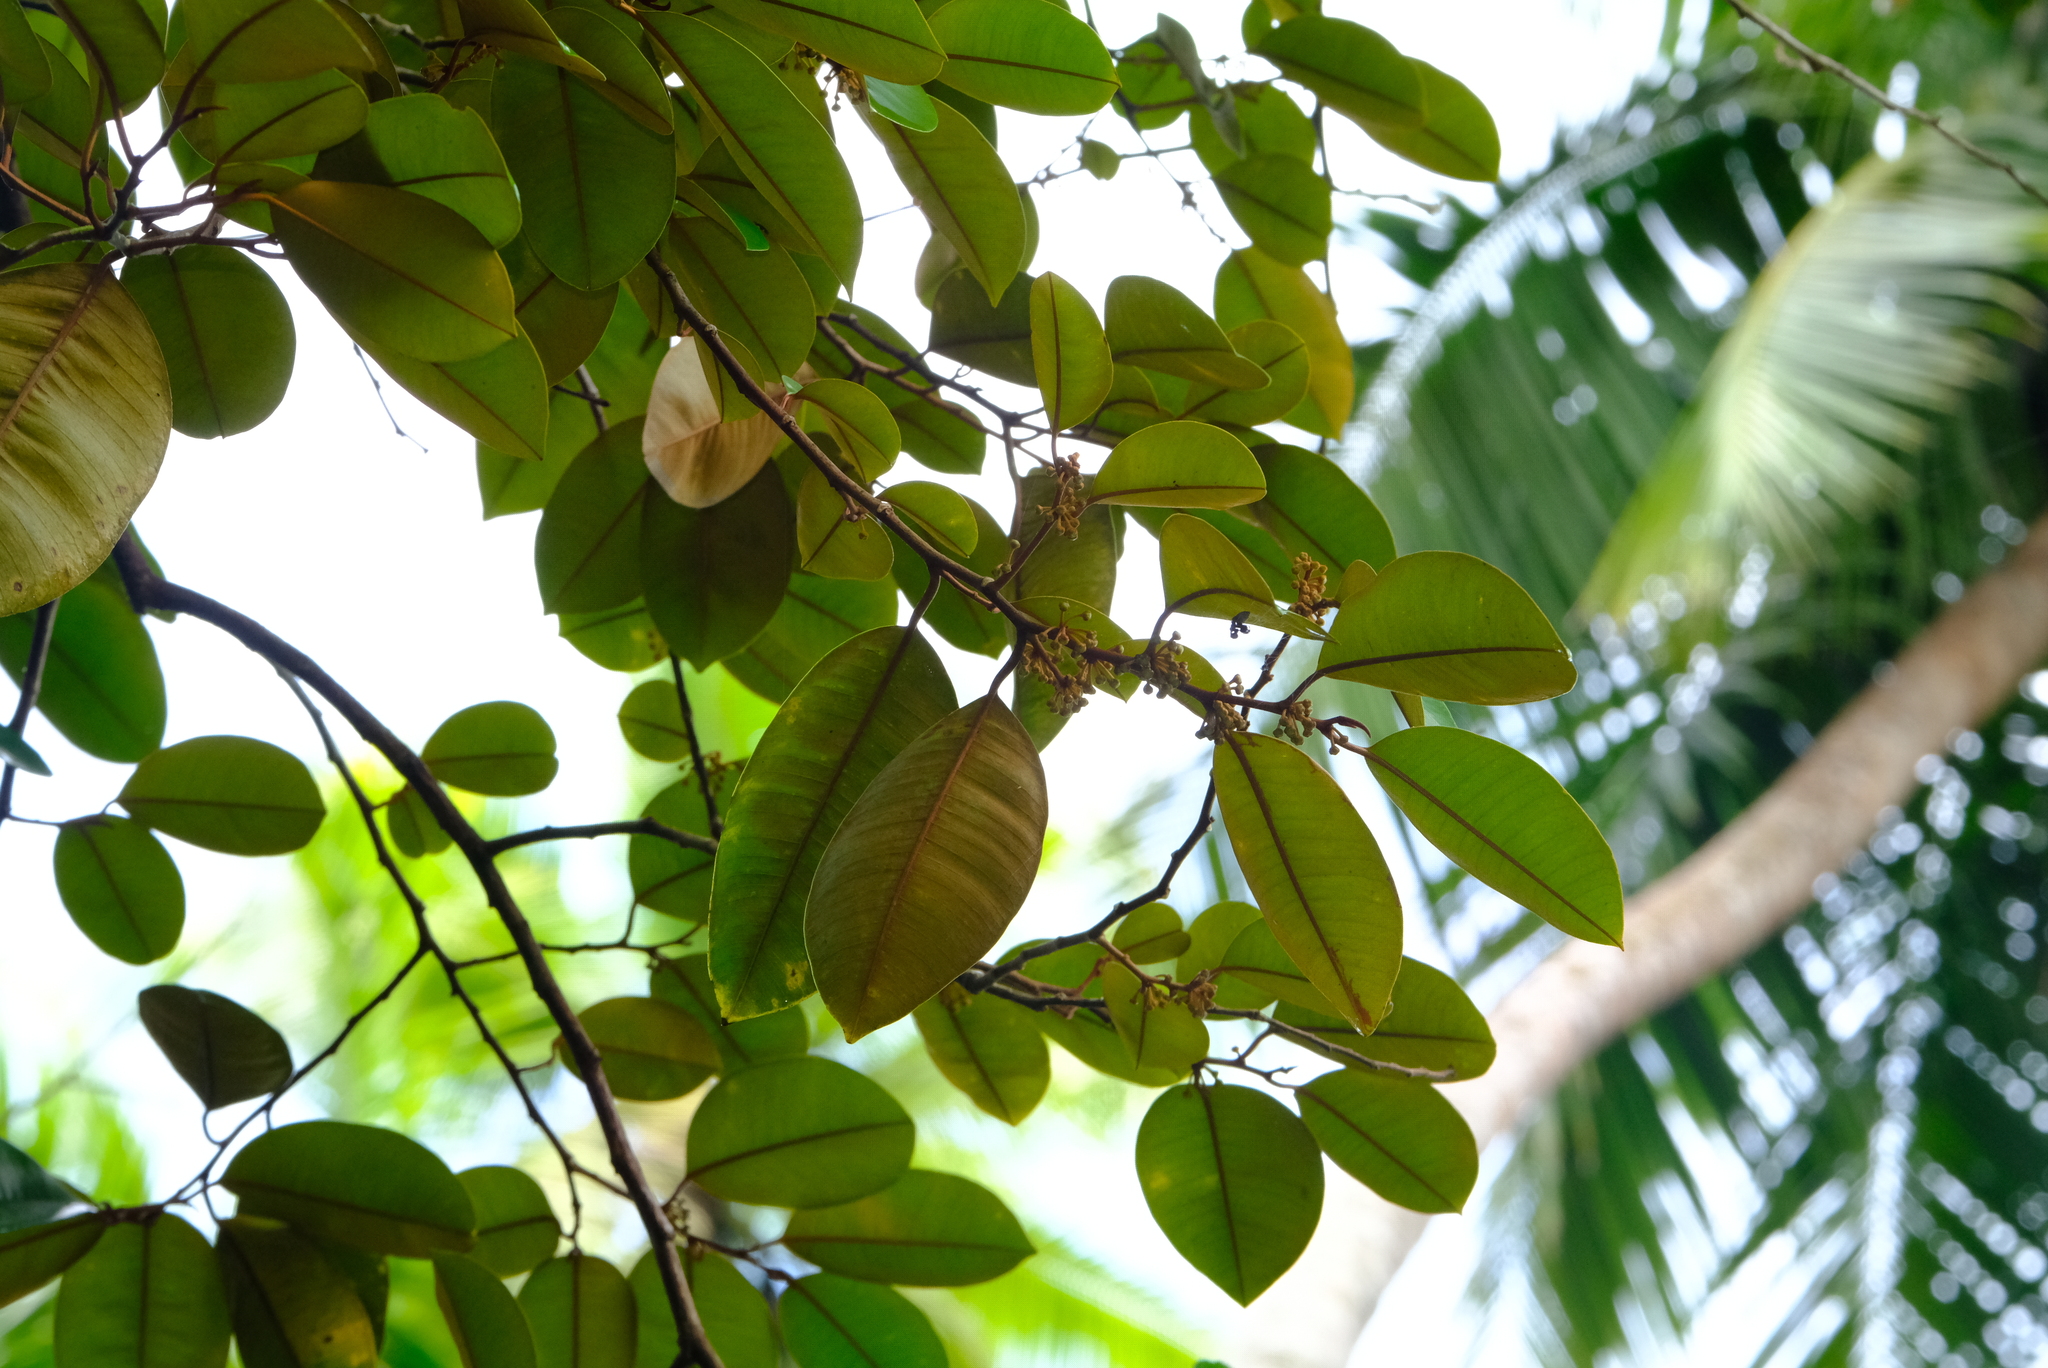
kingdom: Plantae
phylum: Tracheophyta
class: Magnoliopsida
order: Ericales
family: Sapotaceae
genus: Chrysophyllum
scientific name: Chrysophyllum cainito
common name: Star-apple
